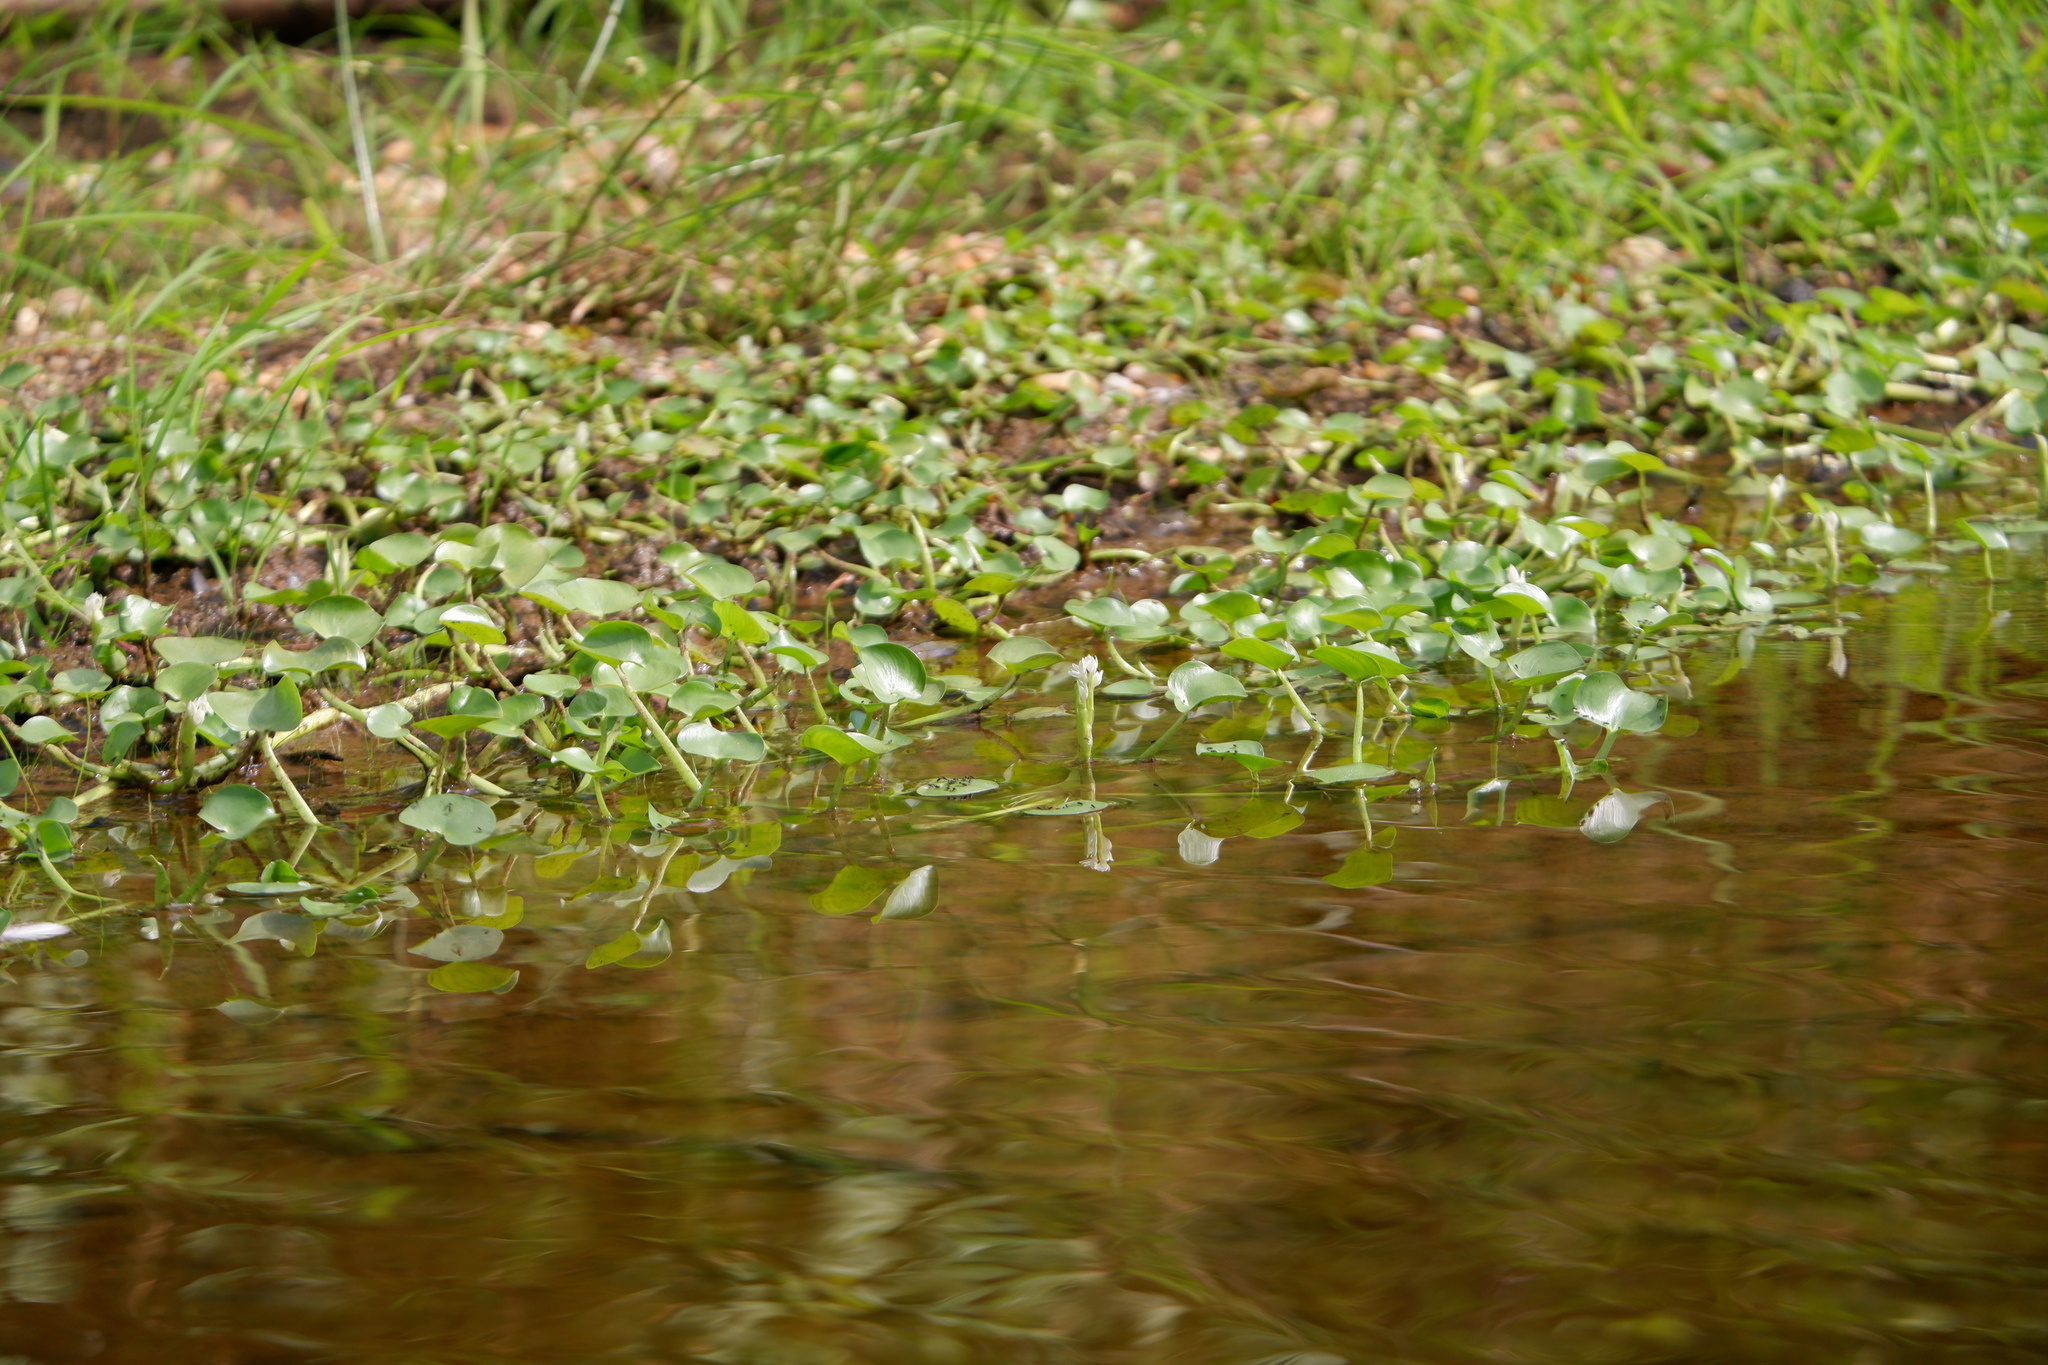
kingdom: Plantae
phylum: Tracheophyta
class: Liliopsida
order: Commelinales
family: Pontederiaceae
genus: Heteranthera
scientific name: Heteranthera reniformis
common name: Kidneyleaf mudplantain
